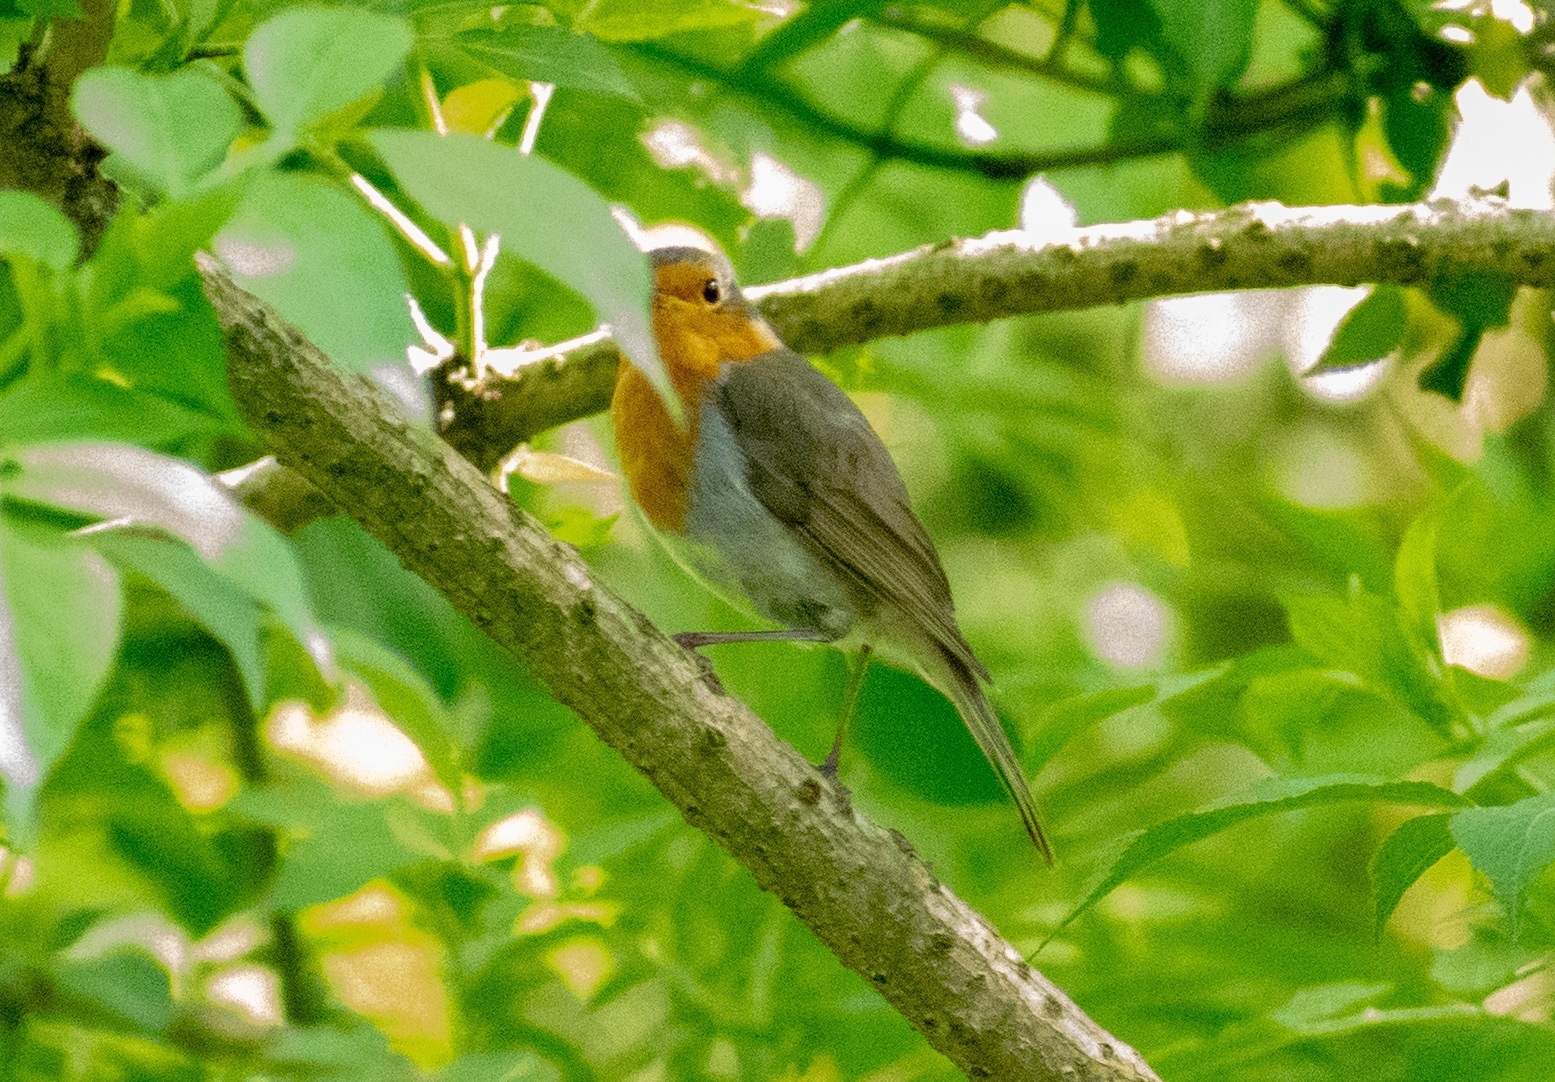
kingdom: Animalia
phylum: Chordata
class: Aves
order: Passeriformes
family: Muscicapidae
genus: Erithacus
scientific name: Erithacus rubecula
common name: European robin
